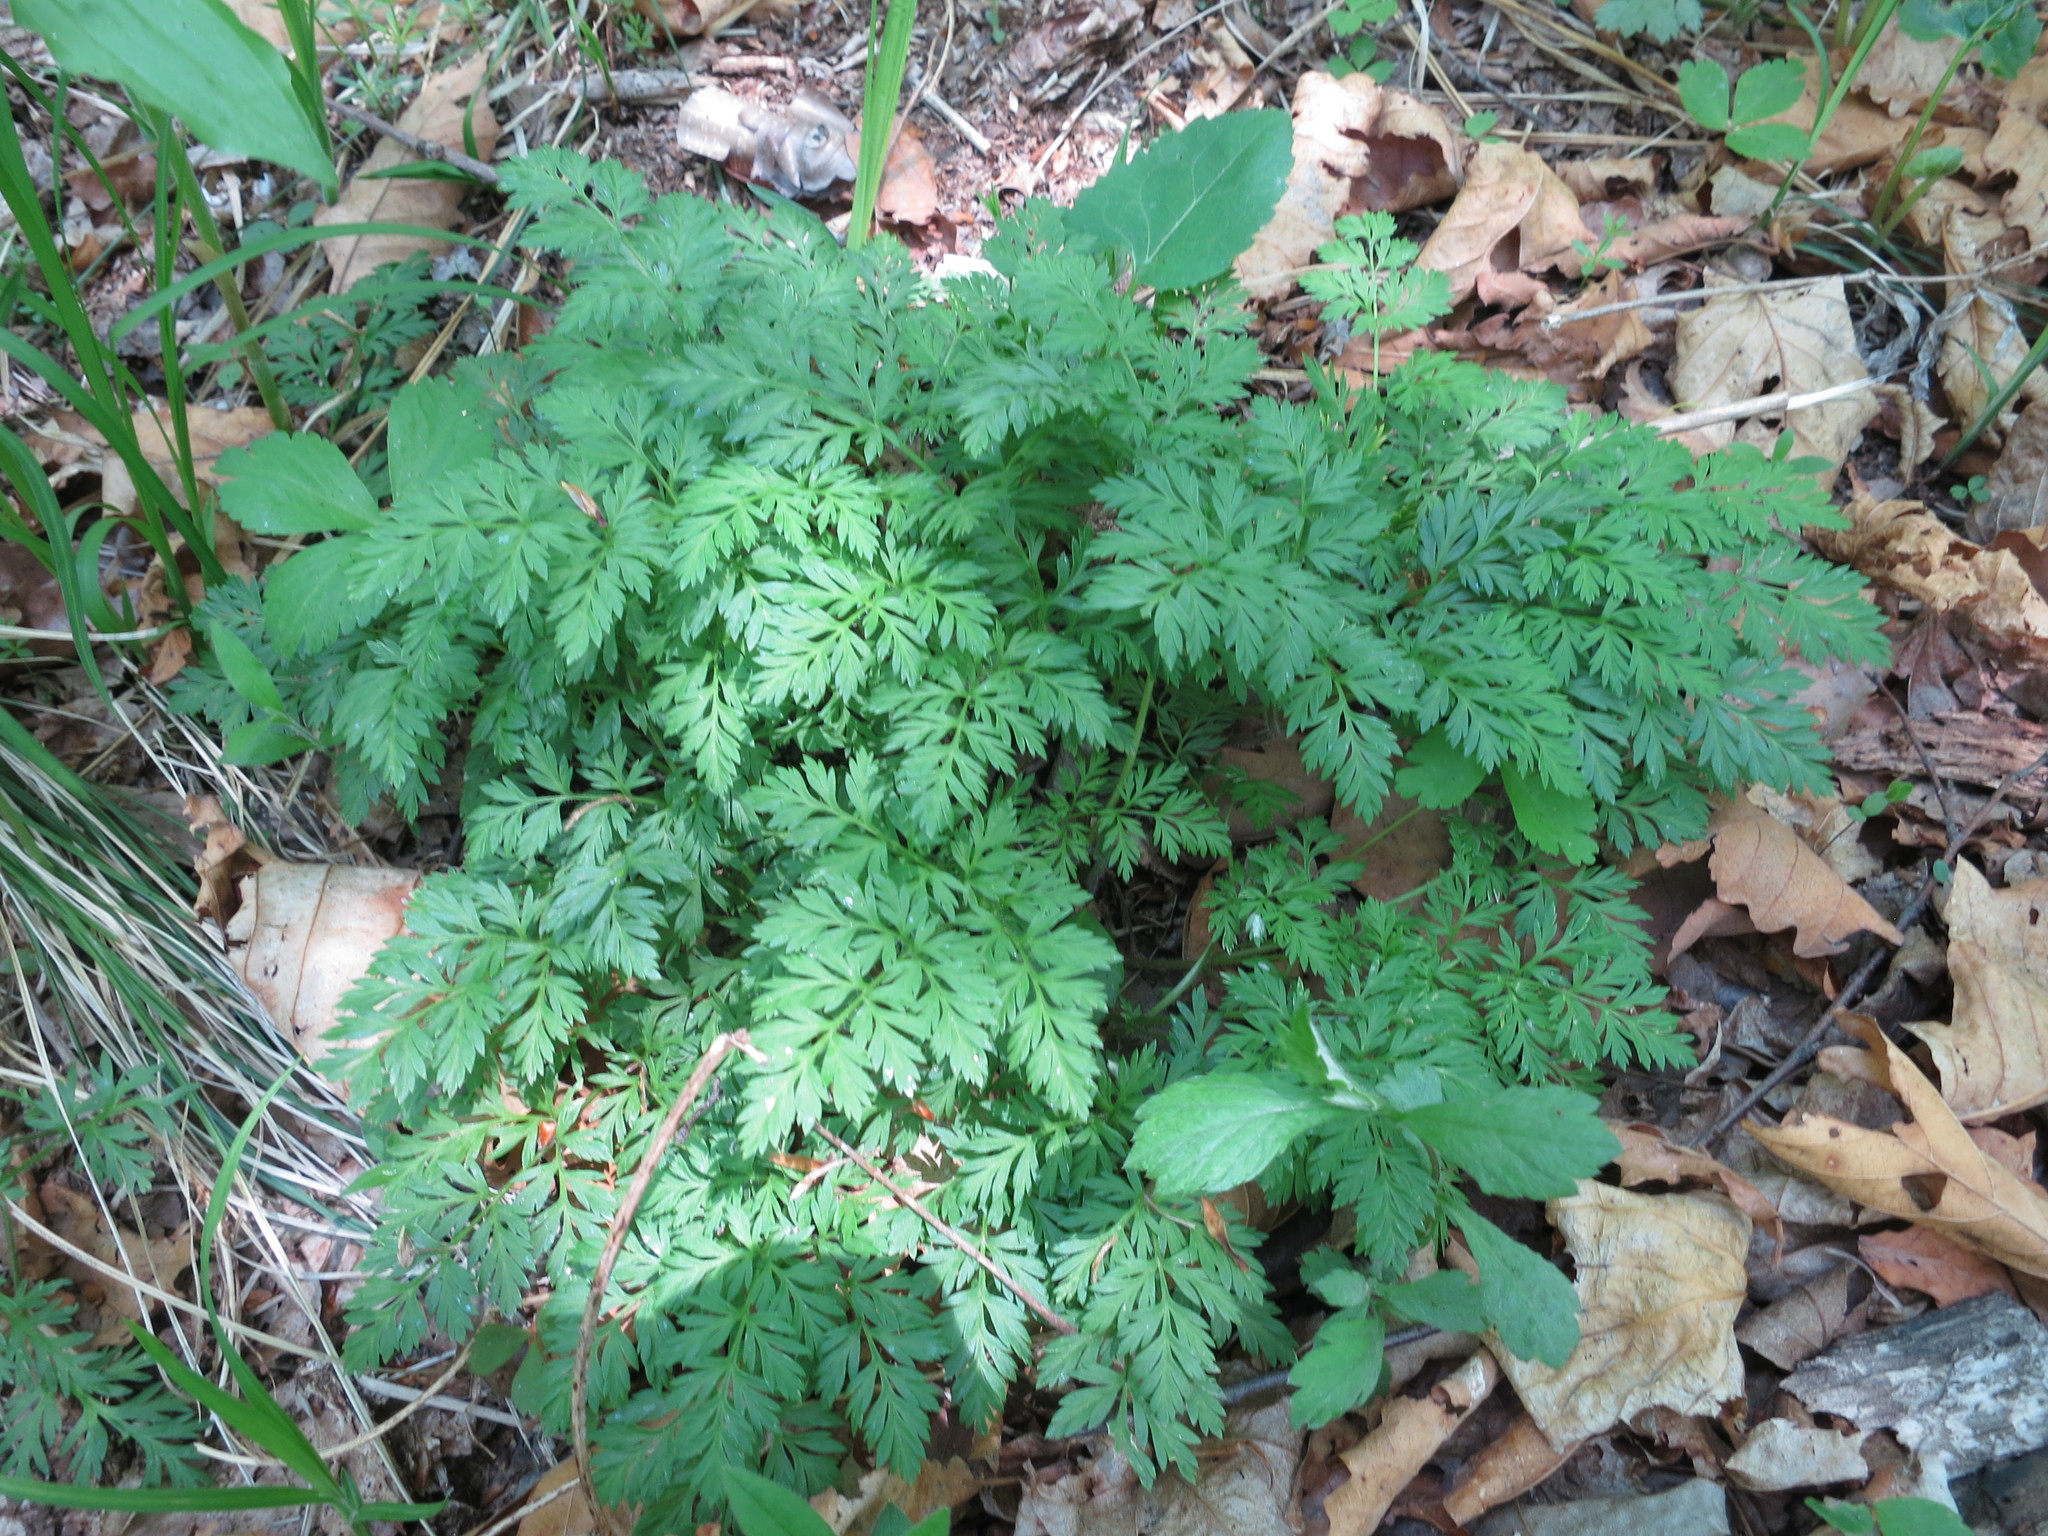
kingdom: Plantae
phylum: Tracheophyta
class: Magnoliopsida
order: Ranunculales
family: Ranunculaceae
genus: Adonis
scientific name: Adonis amurensis
